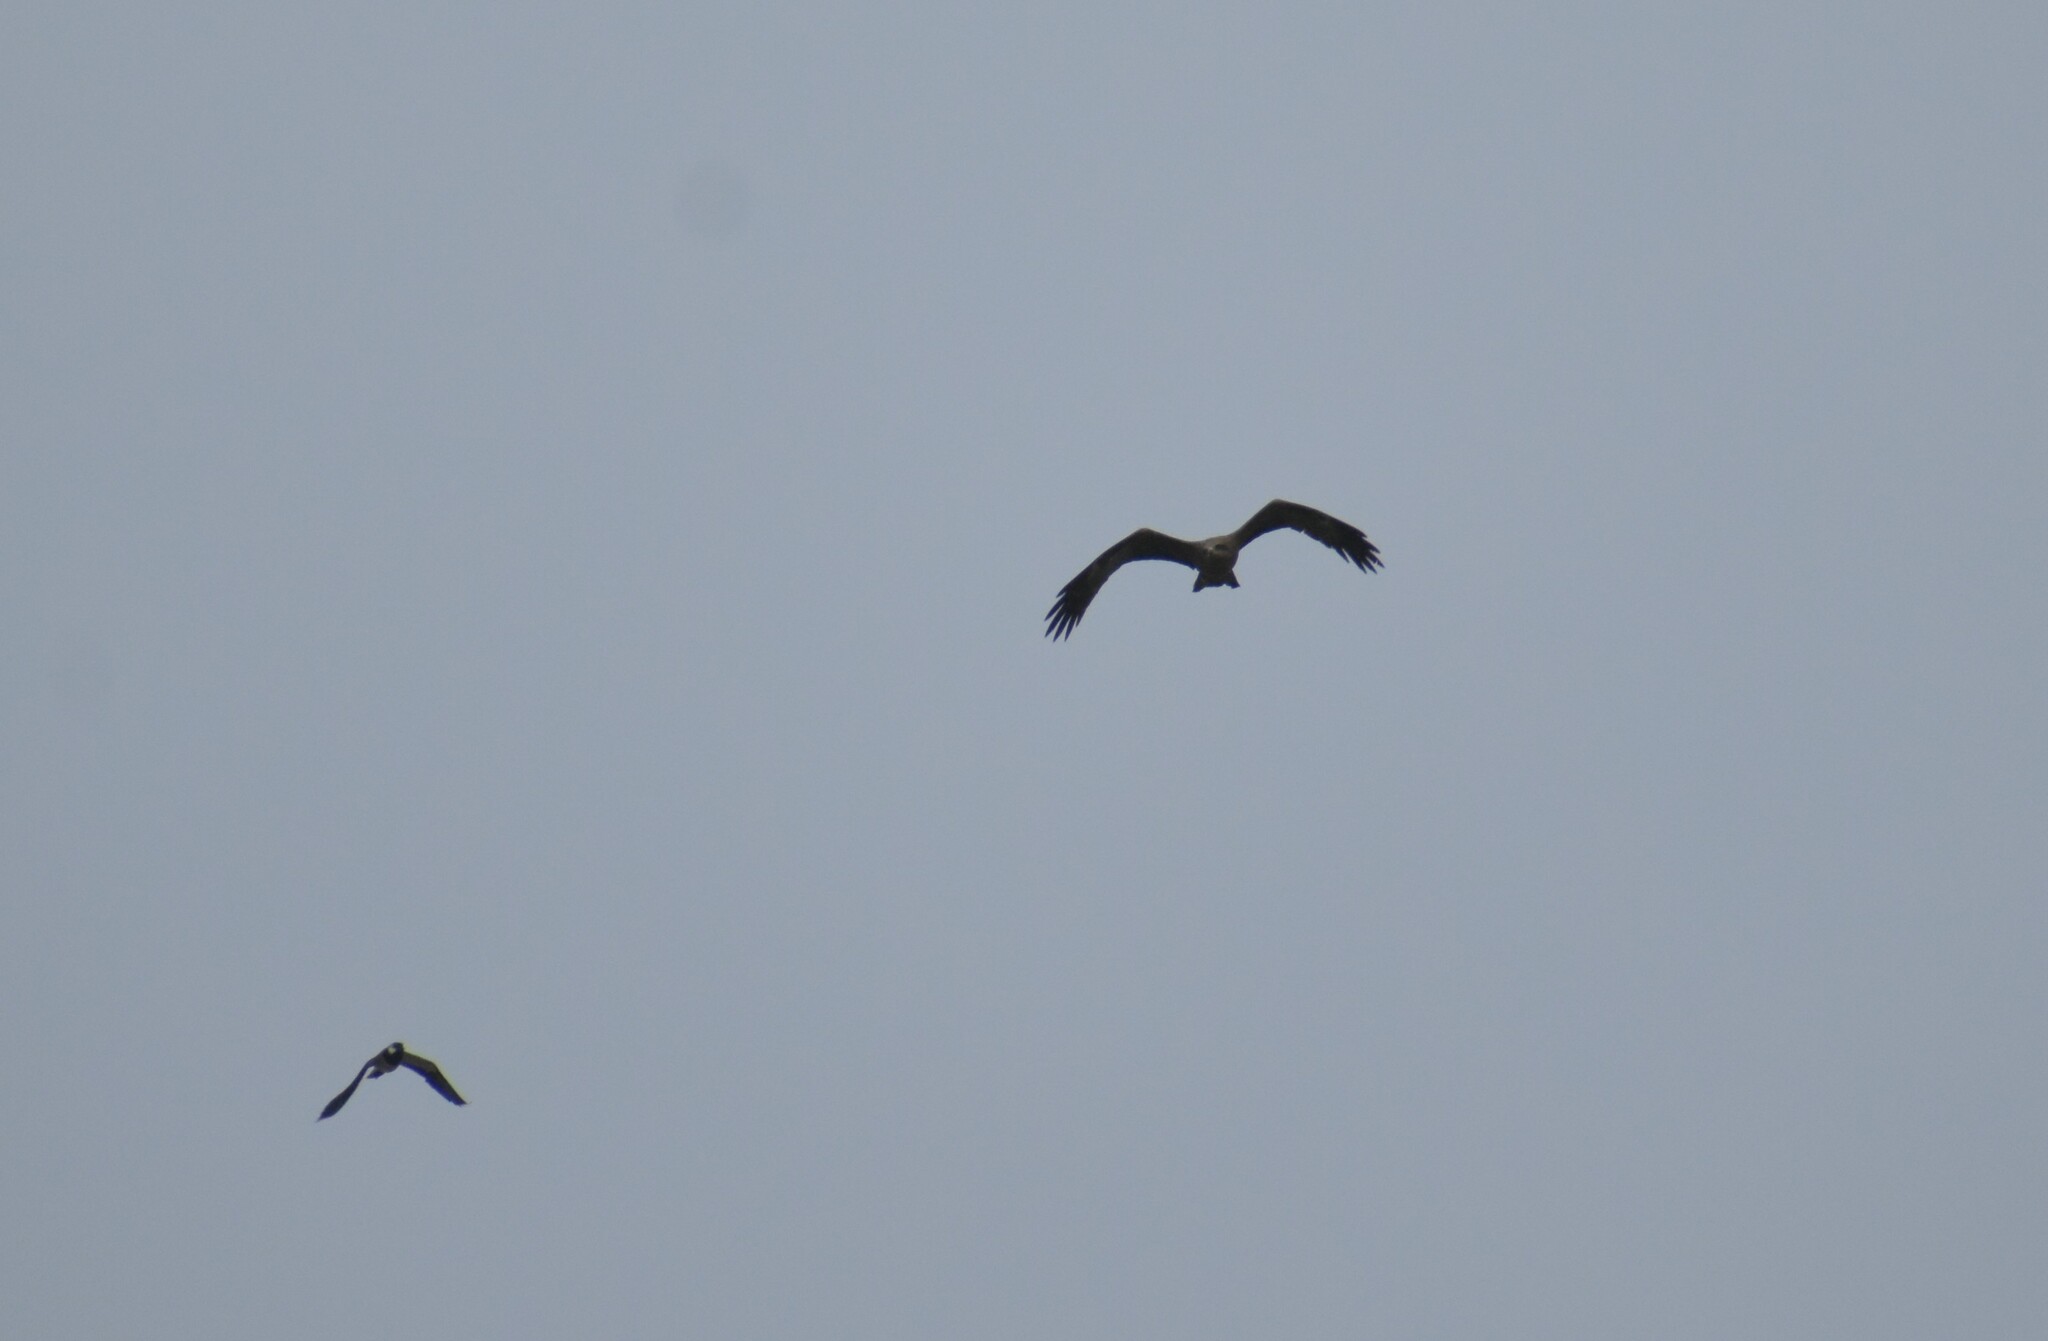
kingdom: Animalia
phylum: Chordata
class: Aves
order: Accipitriformes
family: Accipitridae
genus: Milvus
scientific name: Milvus migrans
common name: Black kite
